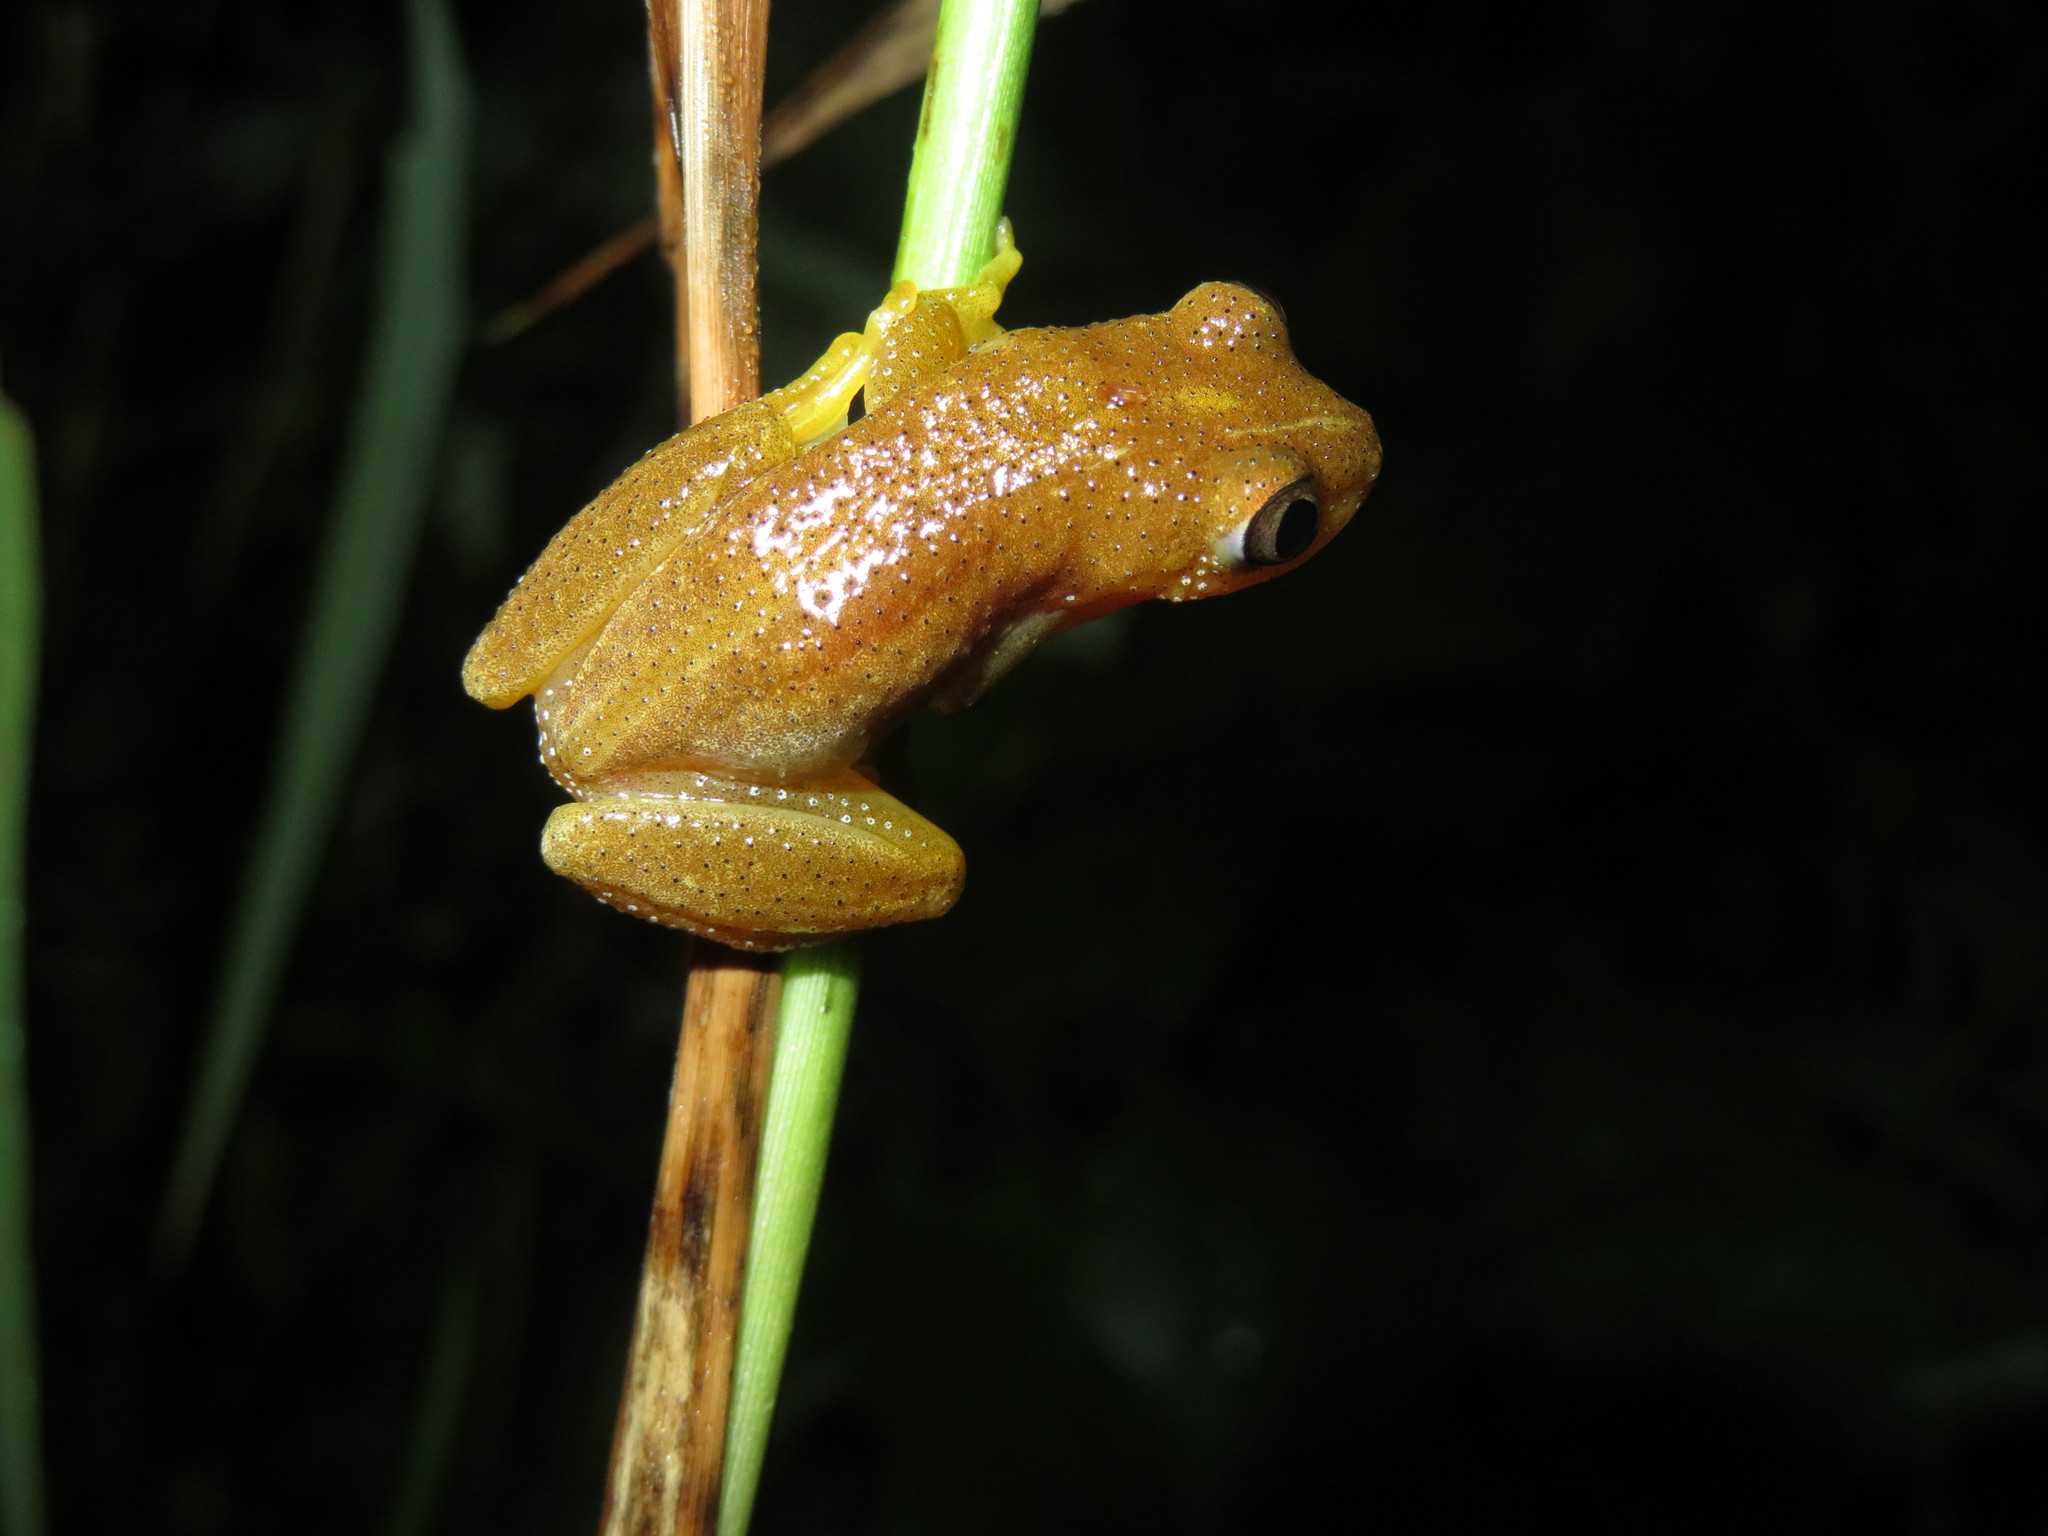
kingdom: Animalia
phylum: Chordata
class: Amphibia
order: Anura
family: Hyperoliidae
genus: Afrixalus
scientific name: Afrixalus fornasini
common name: Fornasini's spiny reed frog
